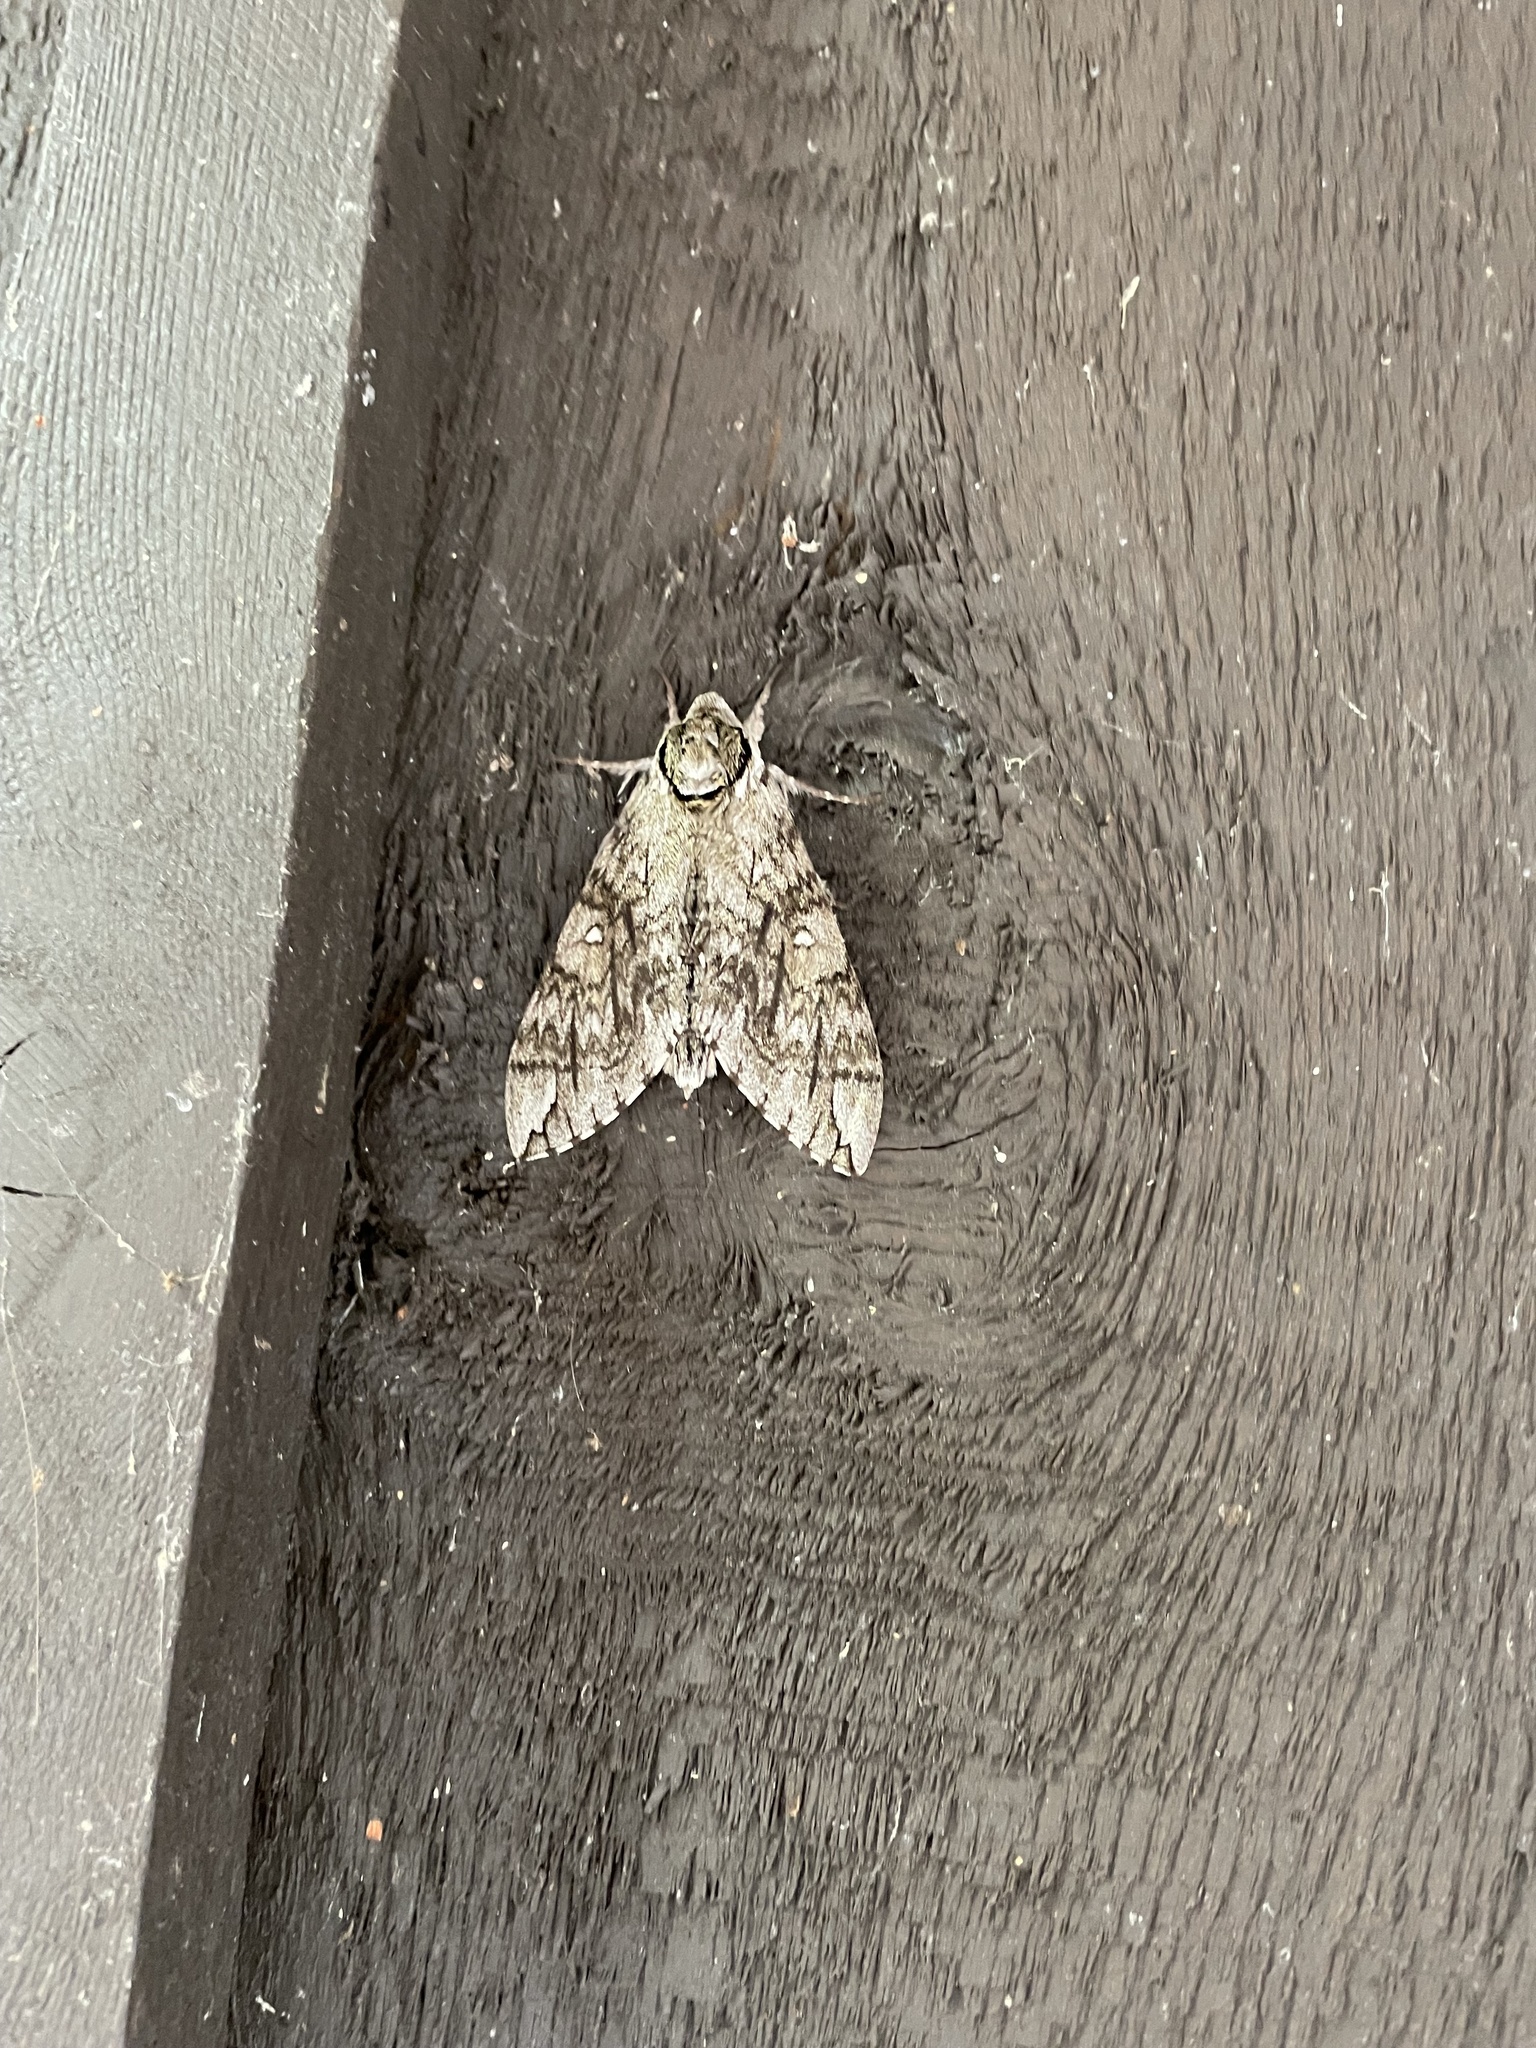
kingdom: Animalia
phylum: Arthropoda
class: Insecta
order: Lepidoptera
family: Sphingidae
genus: Ceratomia
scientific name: Ceratomia undulosa
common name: Waved sphinx
